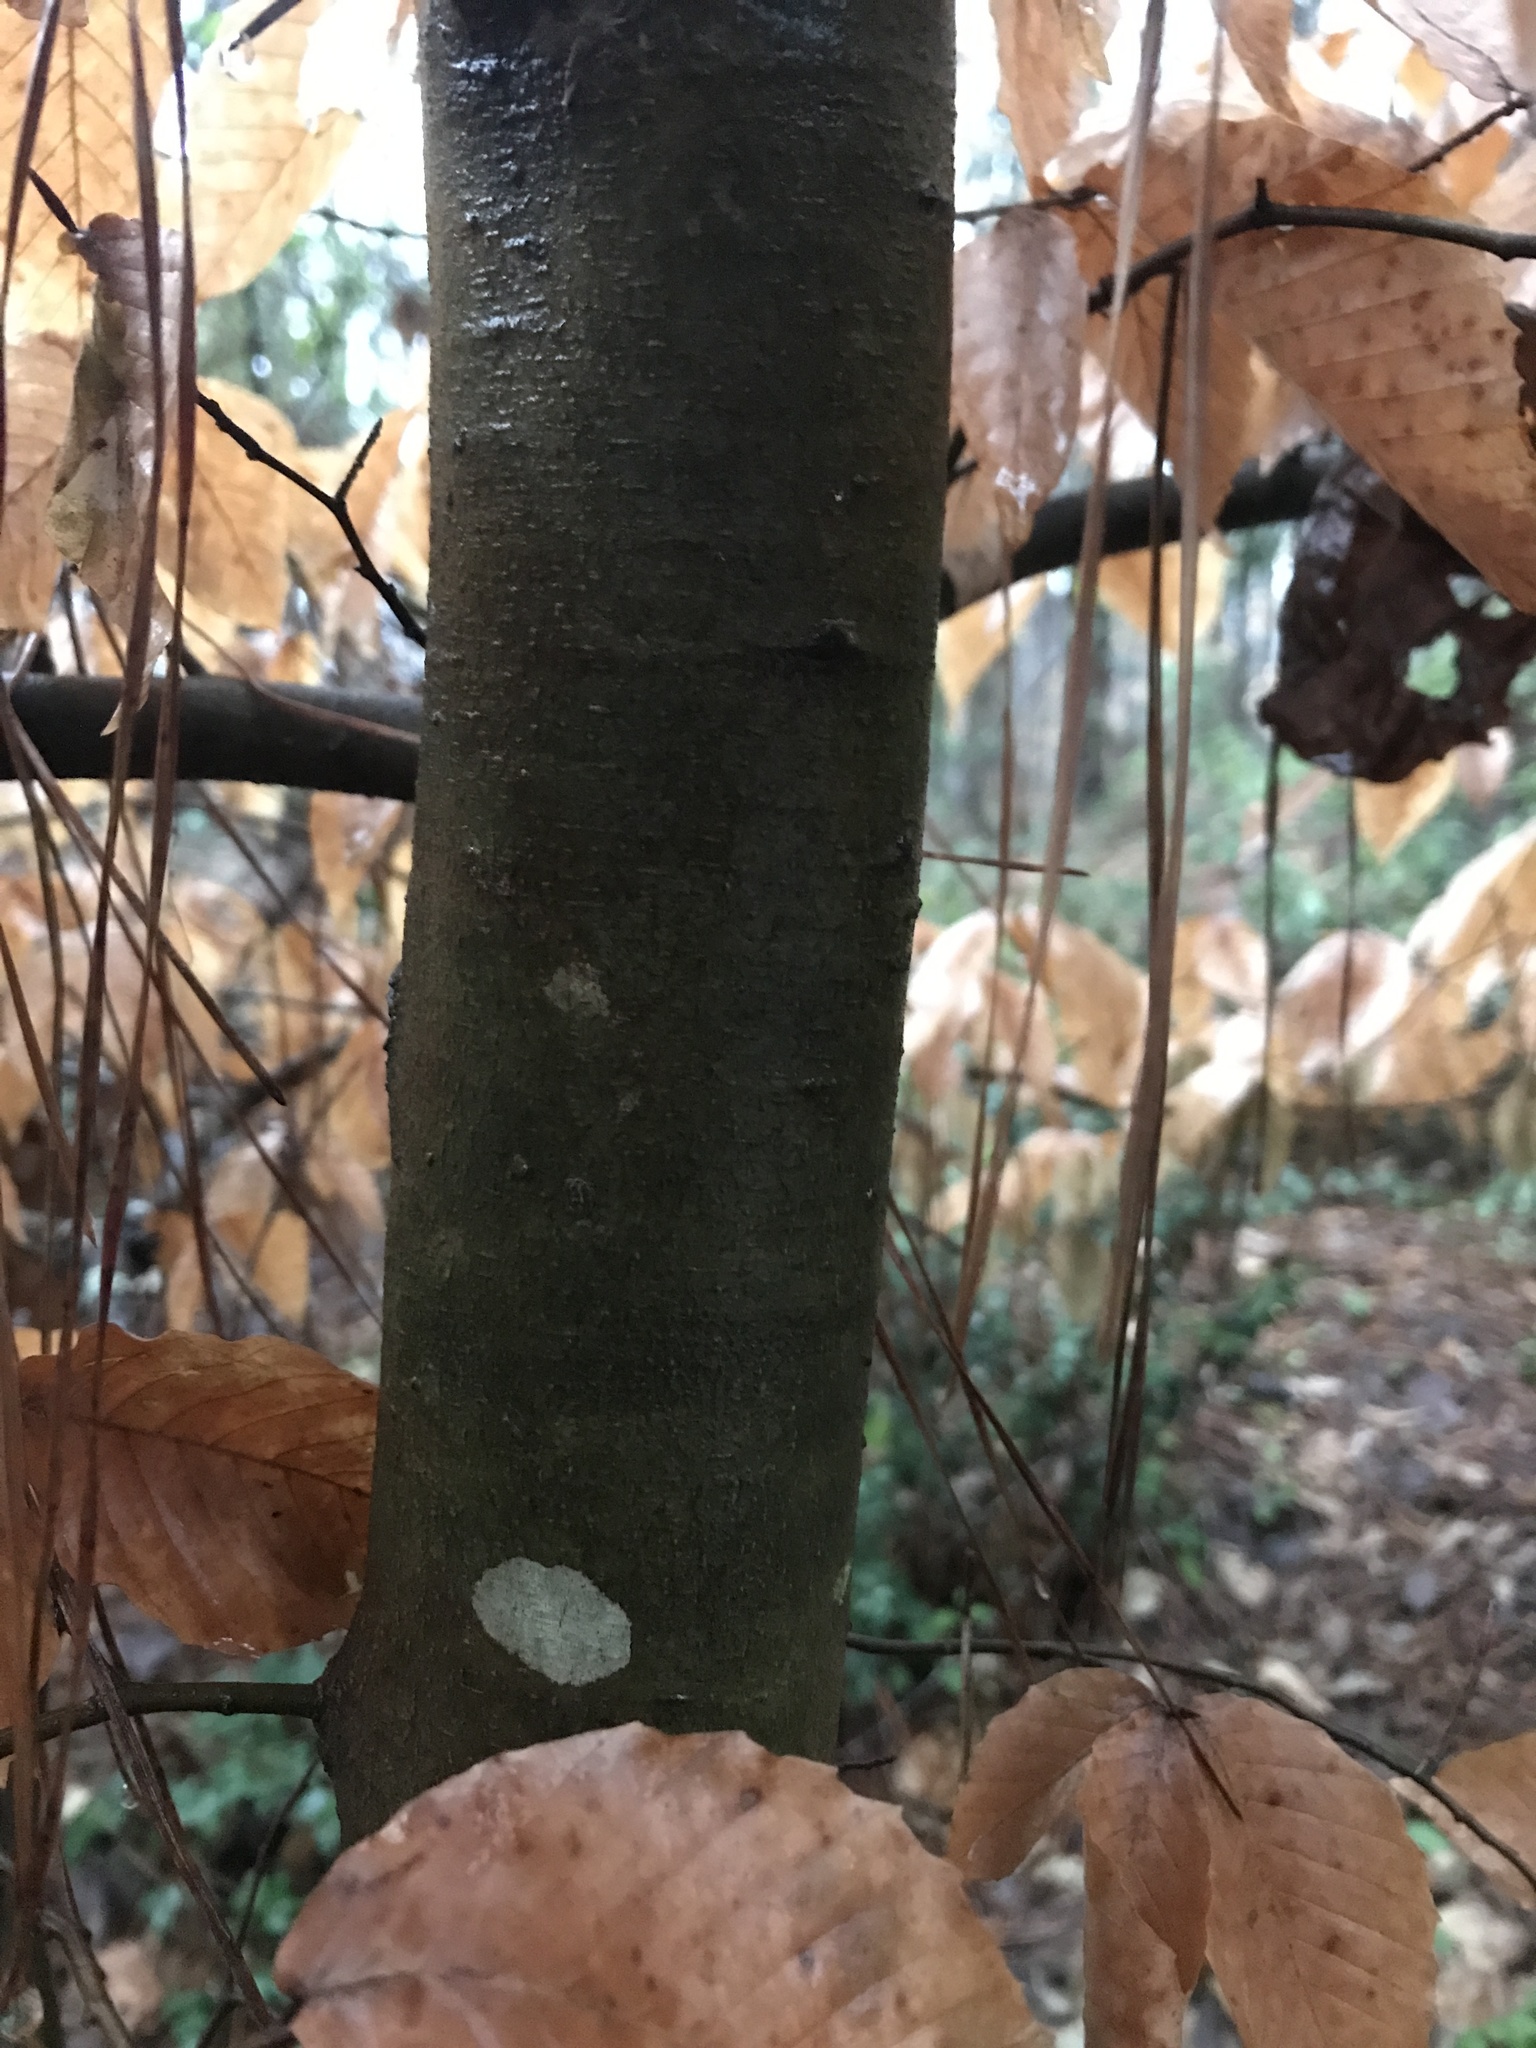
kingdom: Plantae
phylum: Tracheophyta
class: Magnoliopsida
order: Fagales
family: Fagaceae
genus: Fagus
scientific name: Fagus grandifolia
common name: American beech
